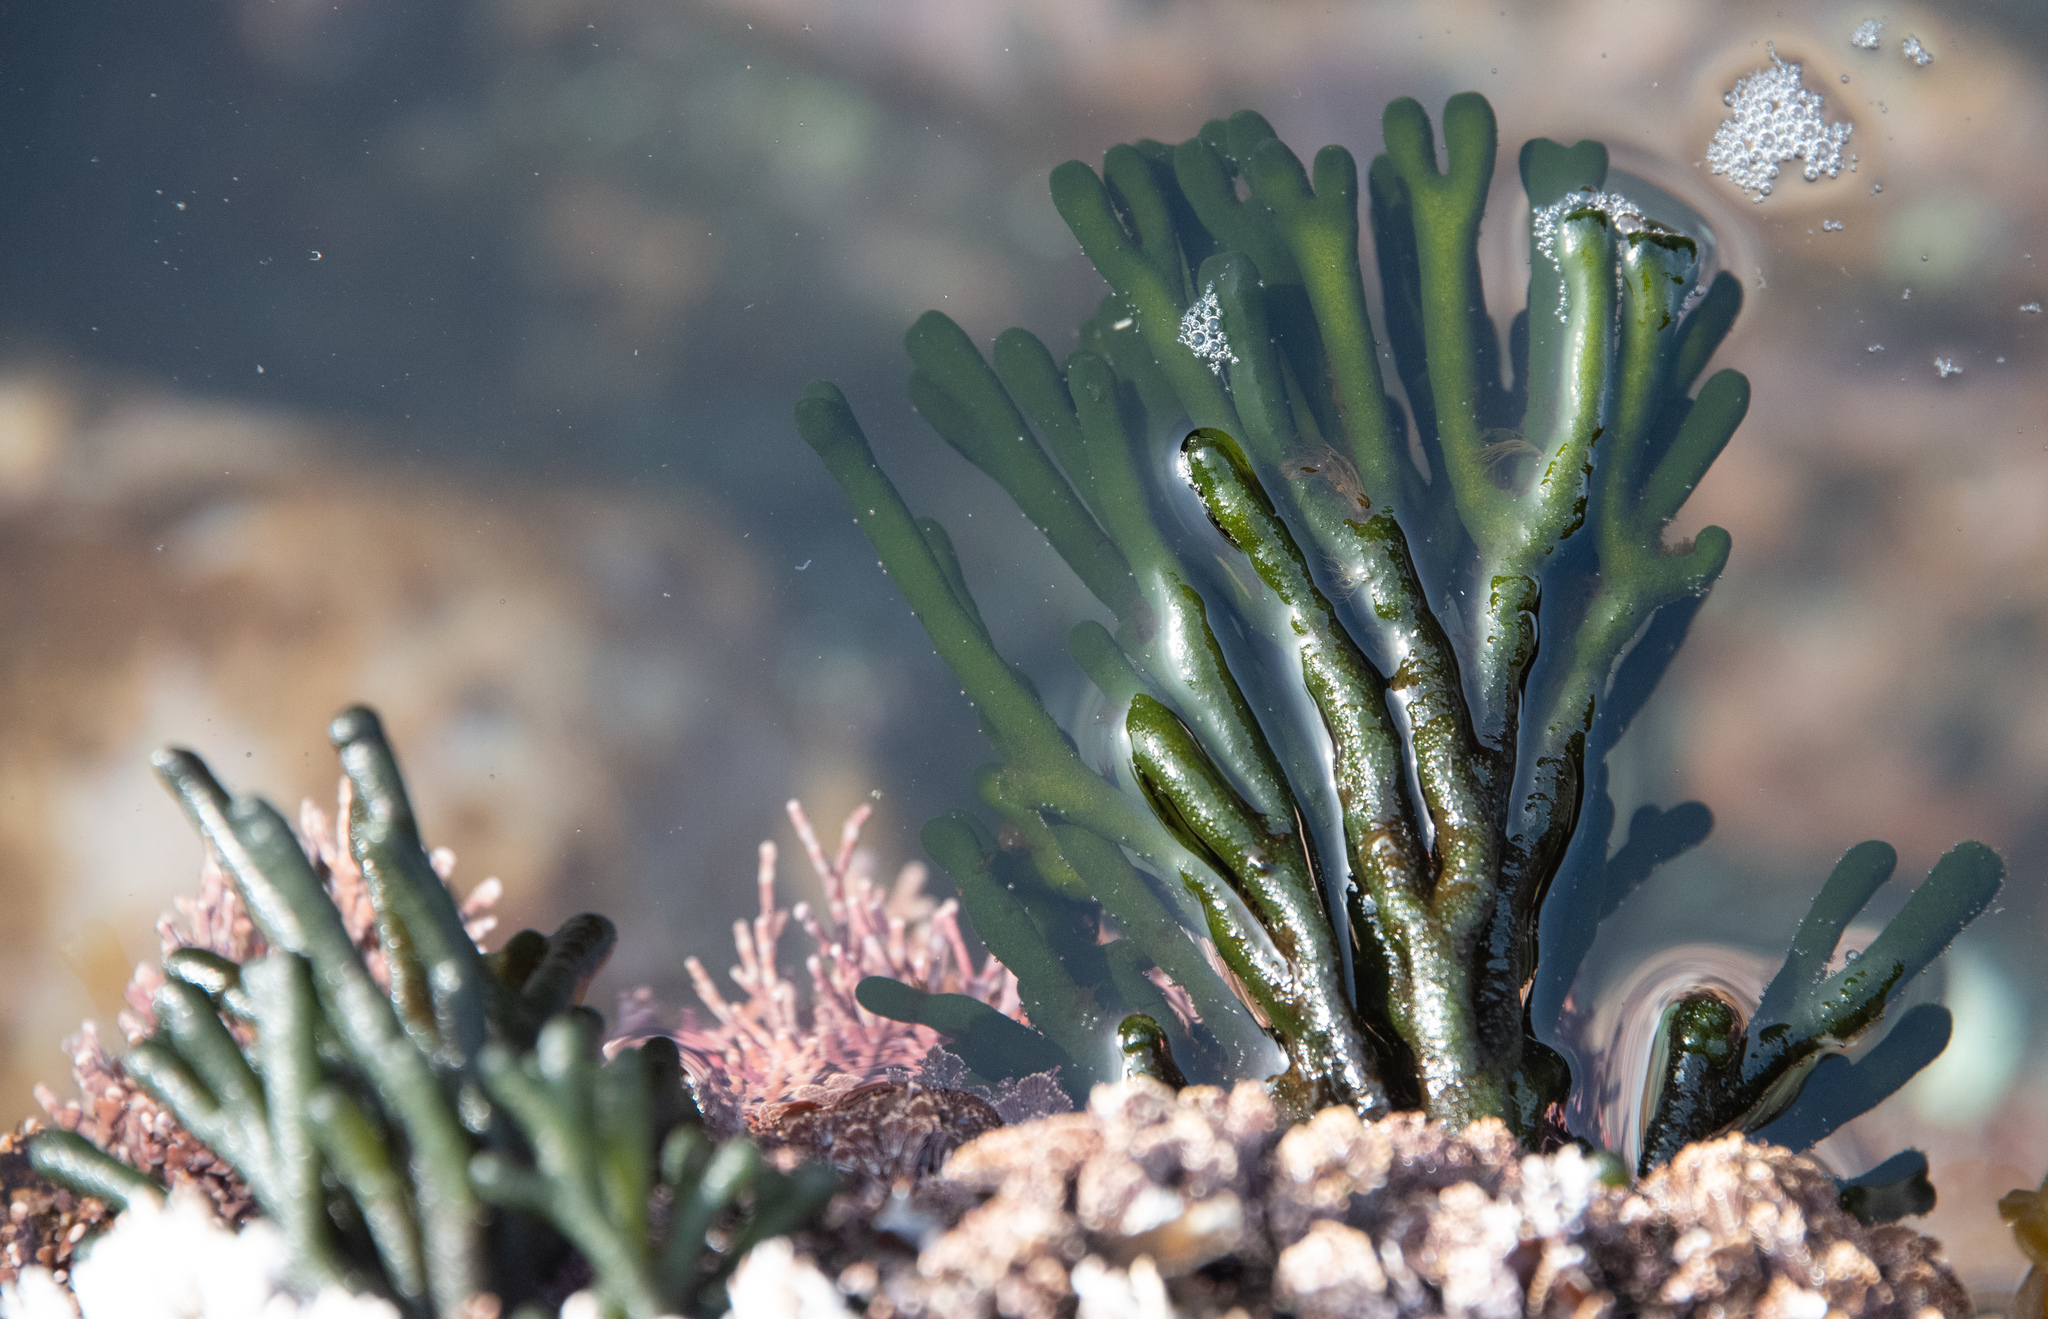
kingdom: Plantae
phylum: Chlorophyta
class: Ulvophyceae
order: Bryopsidales
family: Codiaceae
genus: Codium
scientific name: Codium fragile
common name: Dead man's fingers
